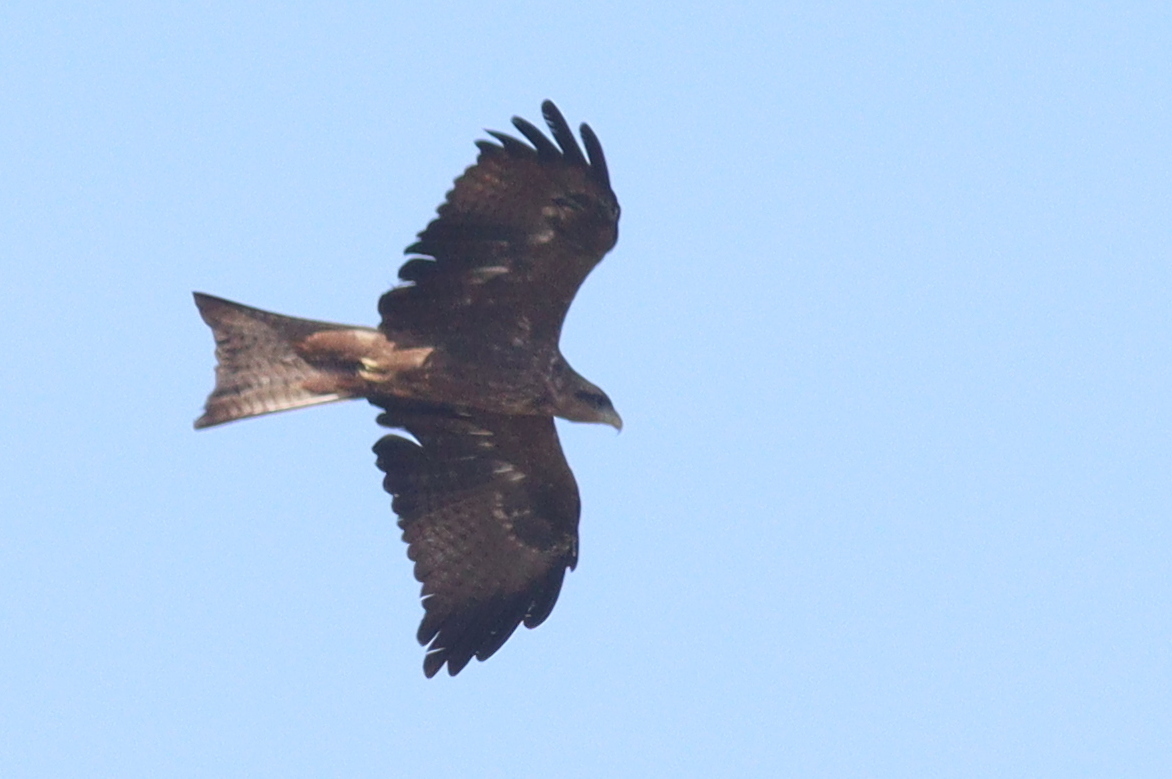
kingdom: Animalia
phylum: Chordata
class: Aves
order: Accipitriformes
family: Accipitridae
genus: Milvus
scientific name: Milvus migrans
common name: Black kite
